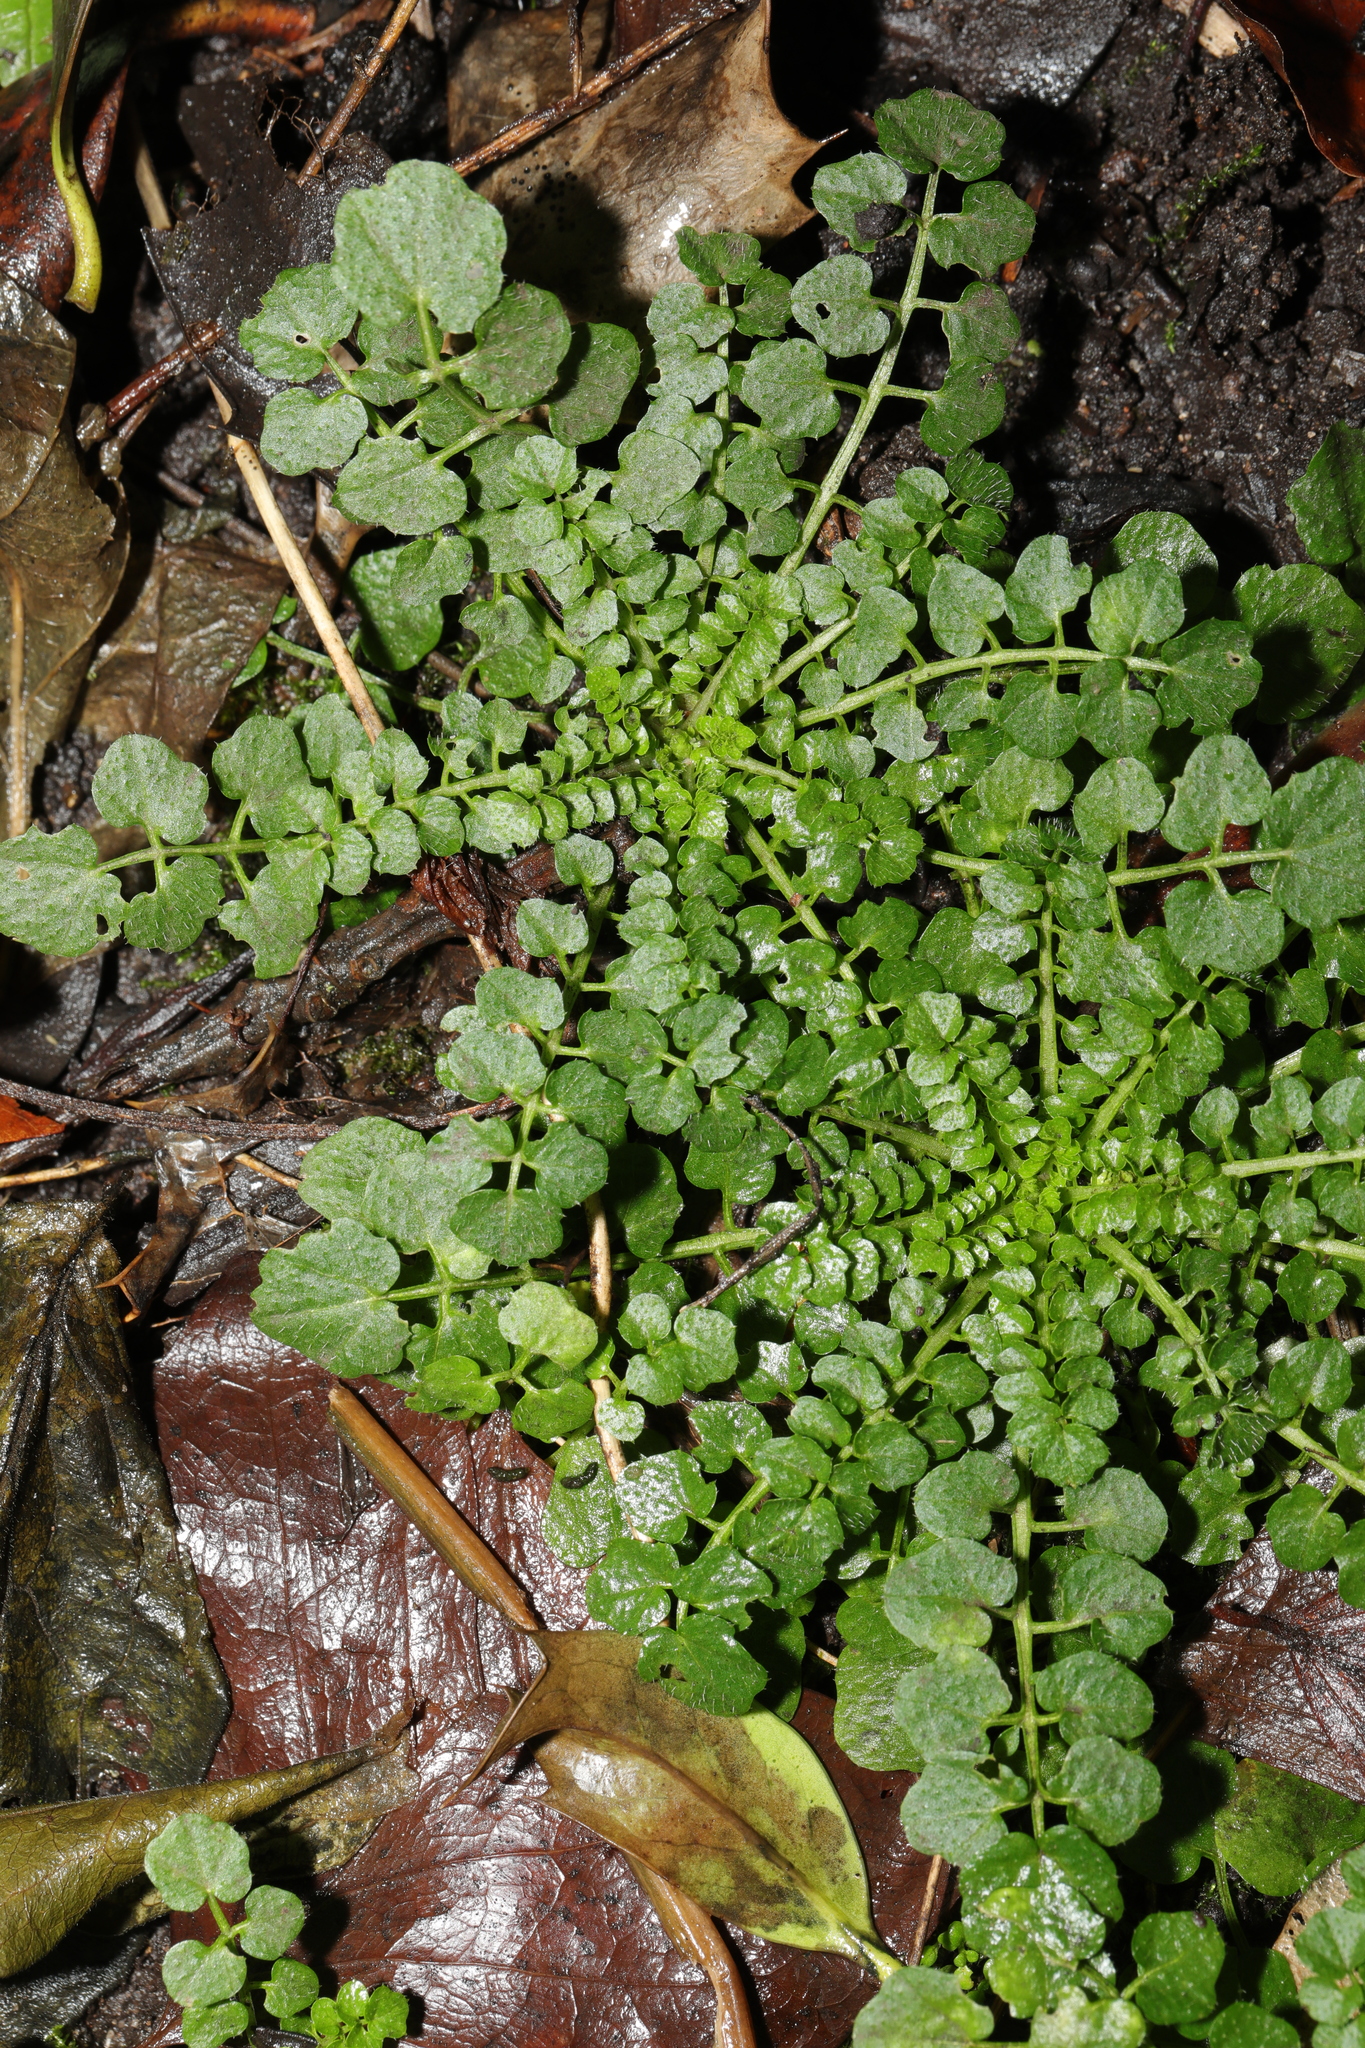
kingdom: Plantae
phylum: Tracheophyta
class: Magnoliopsida
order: Brassicales
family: Brassicaceae
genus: Cardamine
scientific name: Cardamine flexuosa
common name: Woodland bittercress
